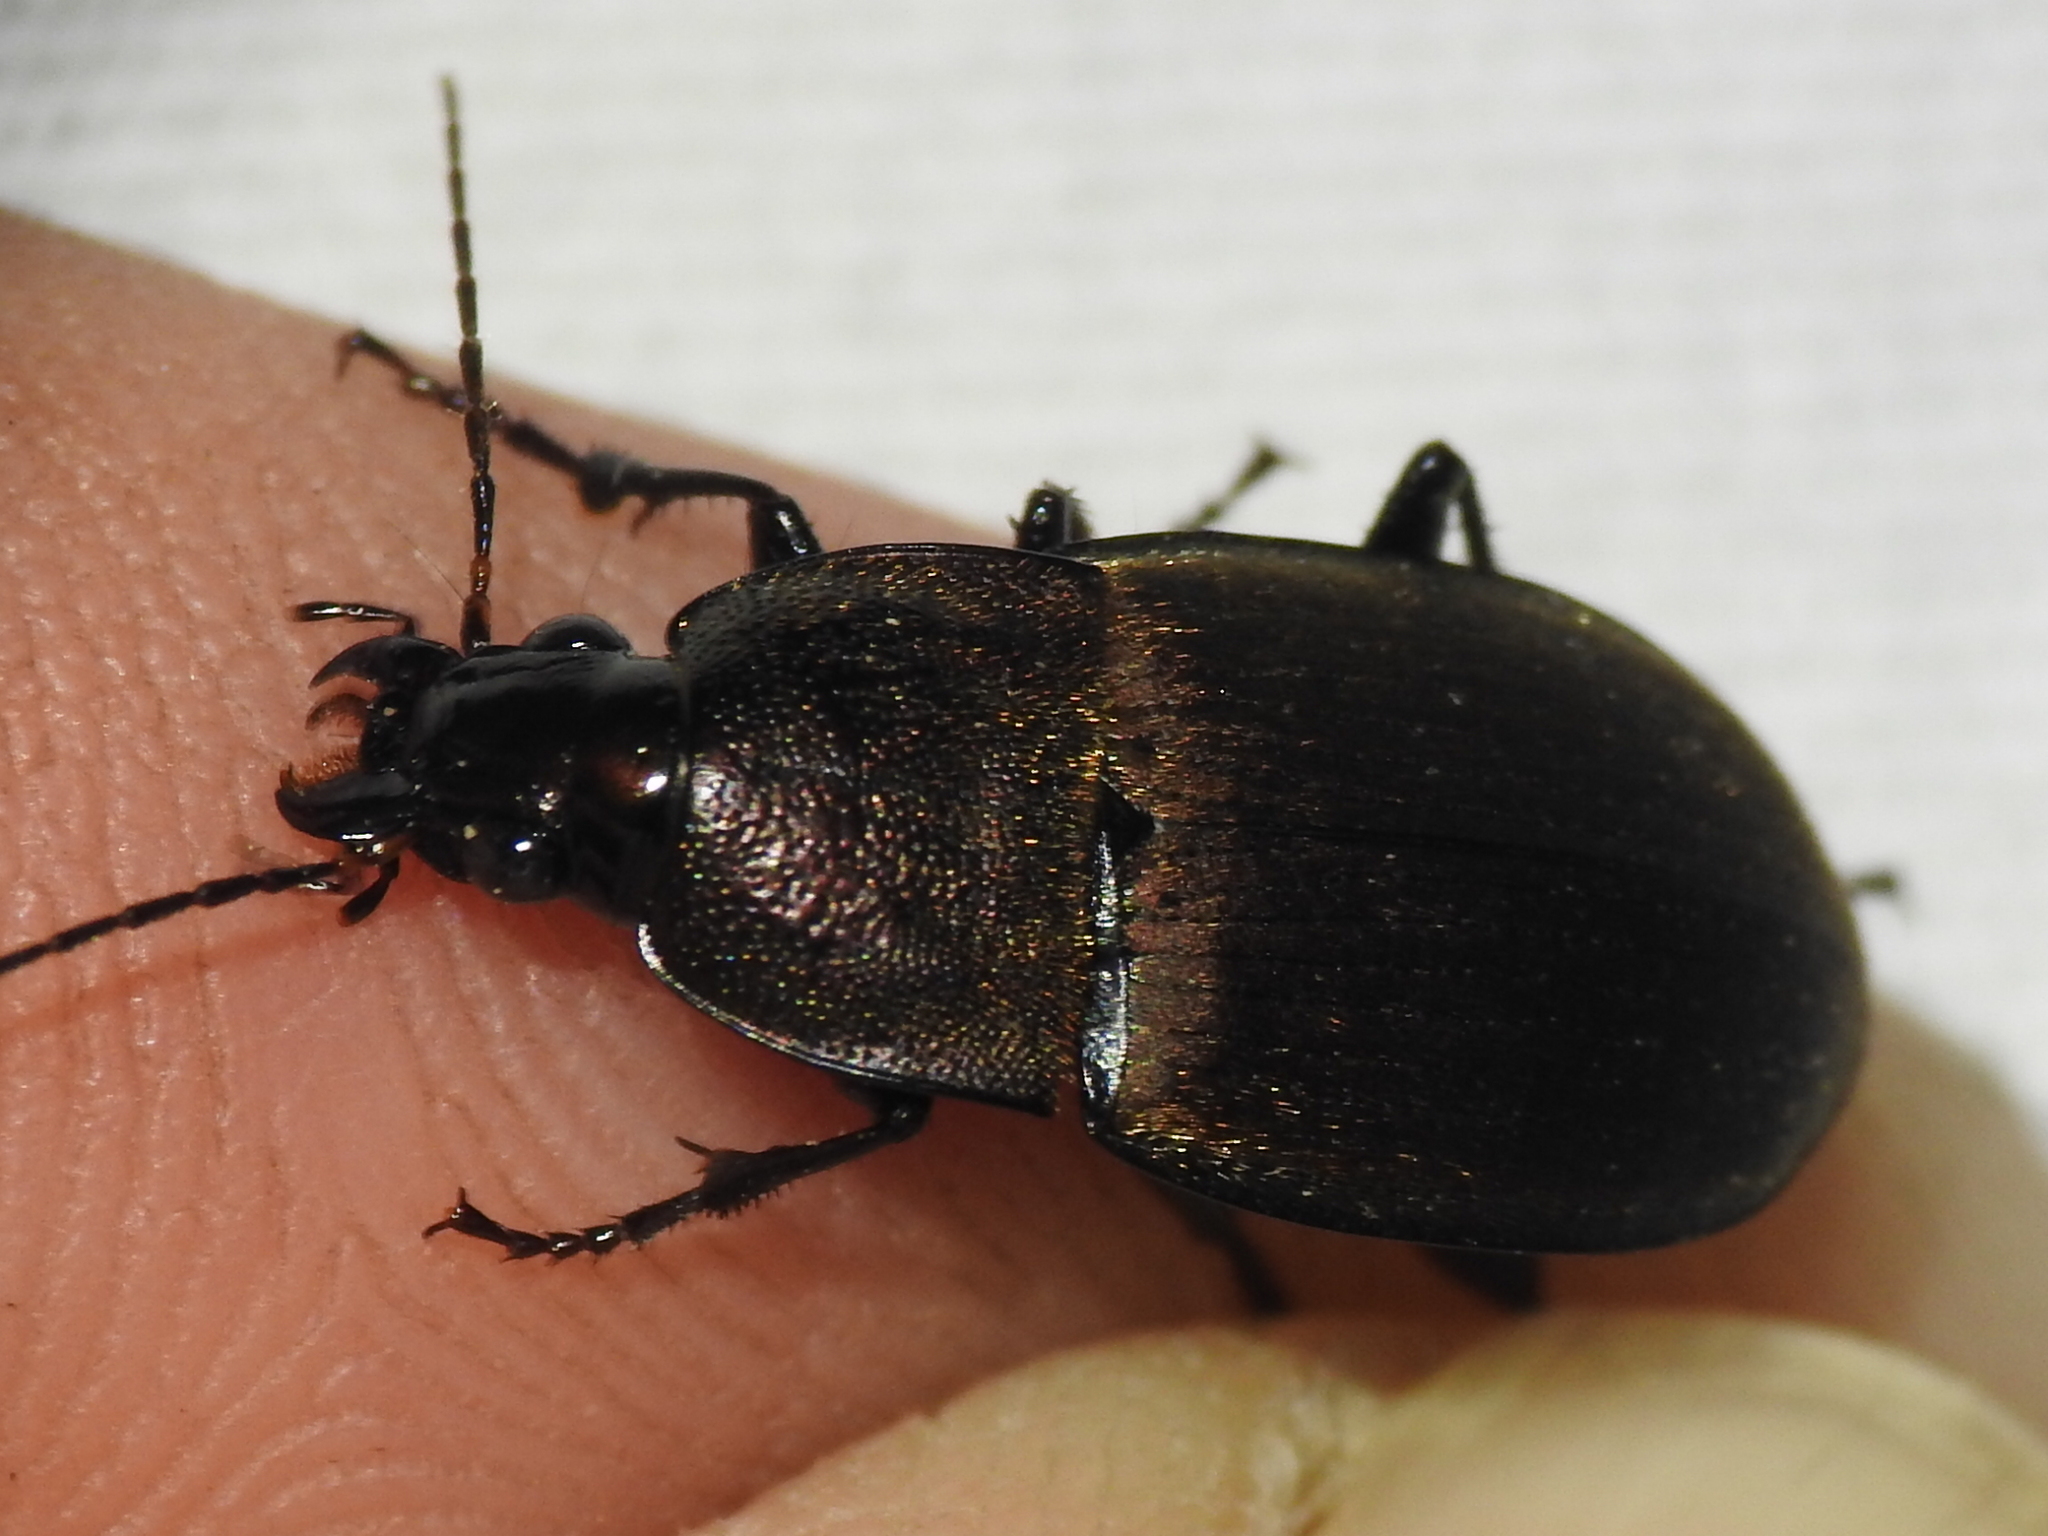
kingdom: Animalia
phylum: Arthropoda
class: Insecta
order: Coleoptera
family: Carabidae
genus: Chlaenius
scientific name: Chlaenius tomentosus
